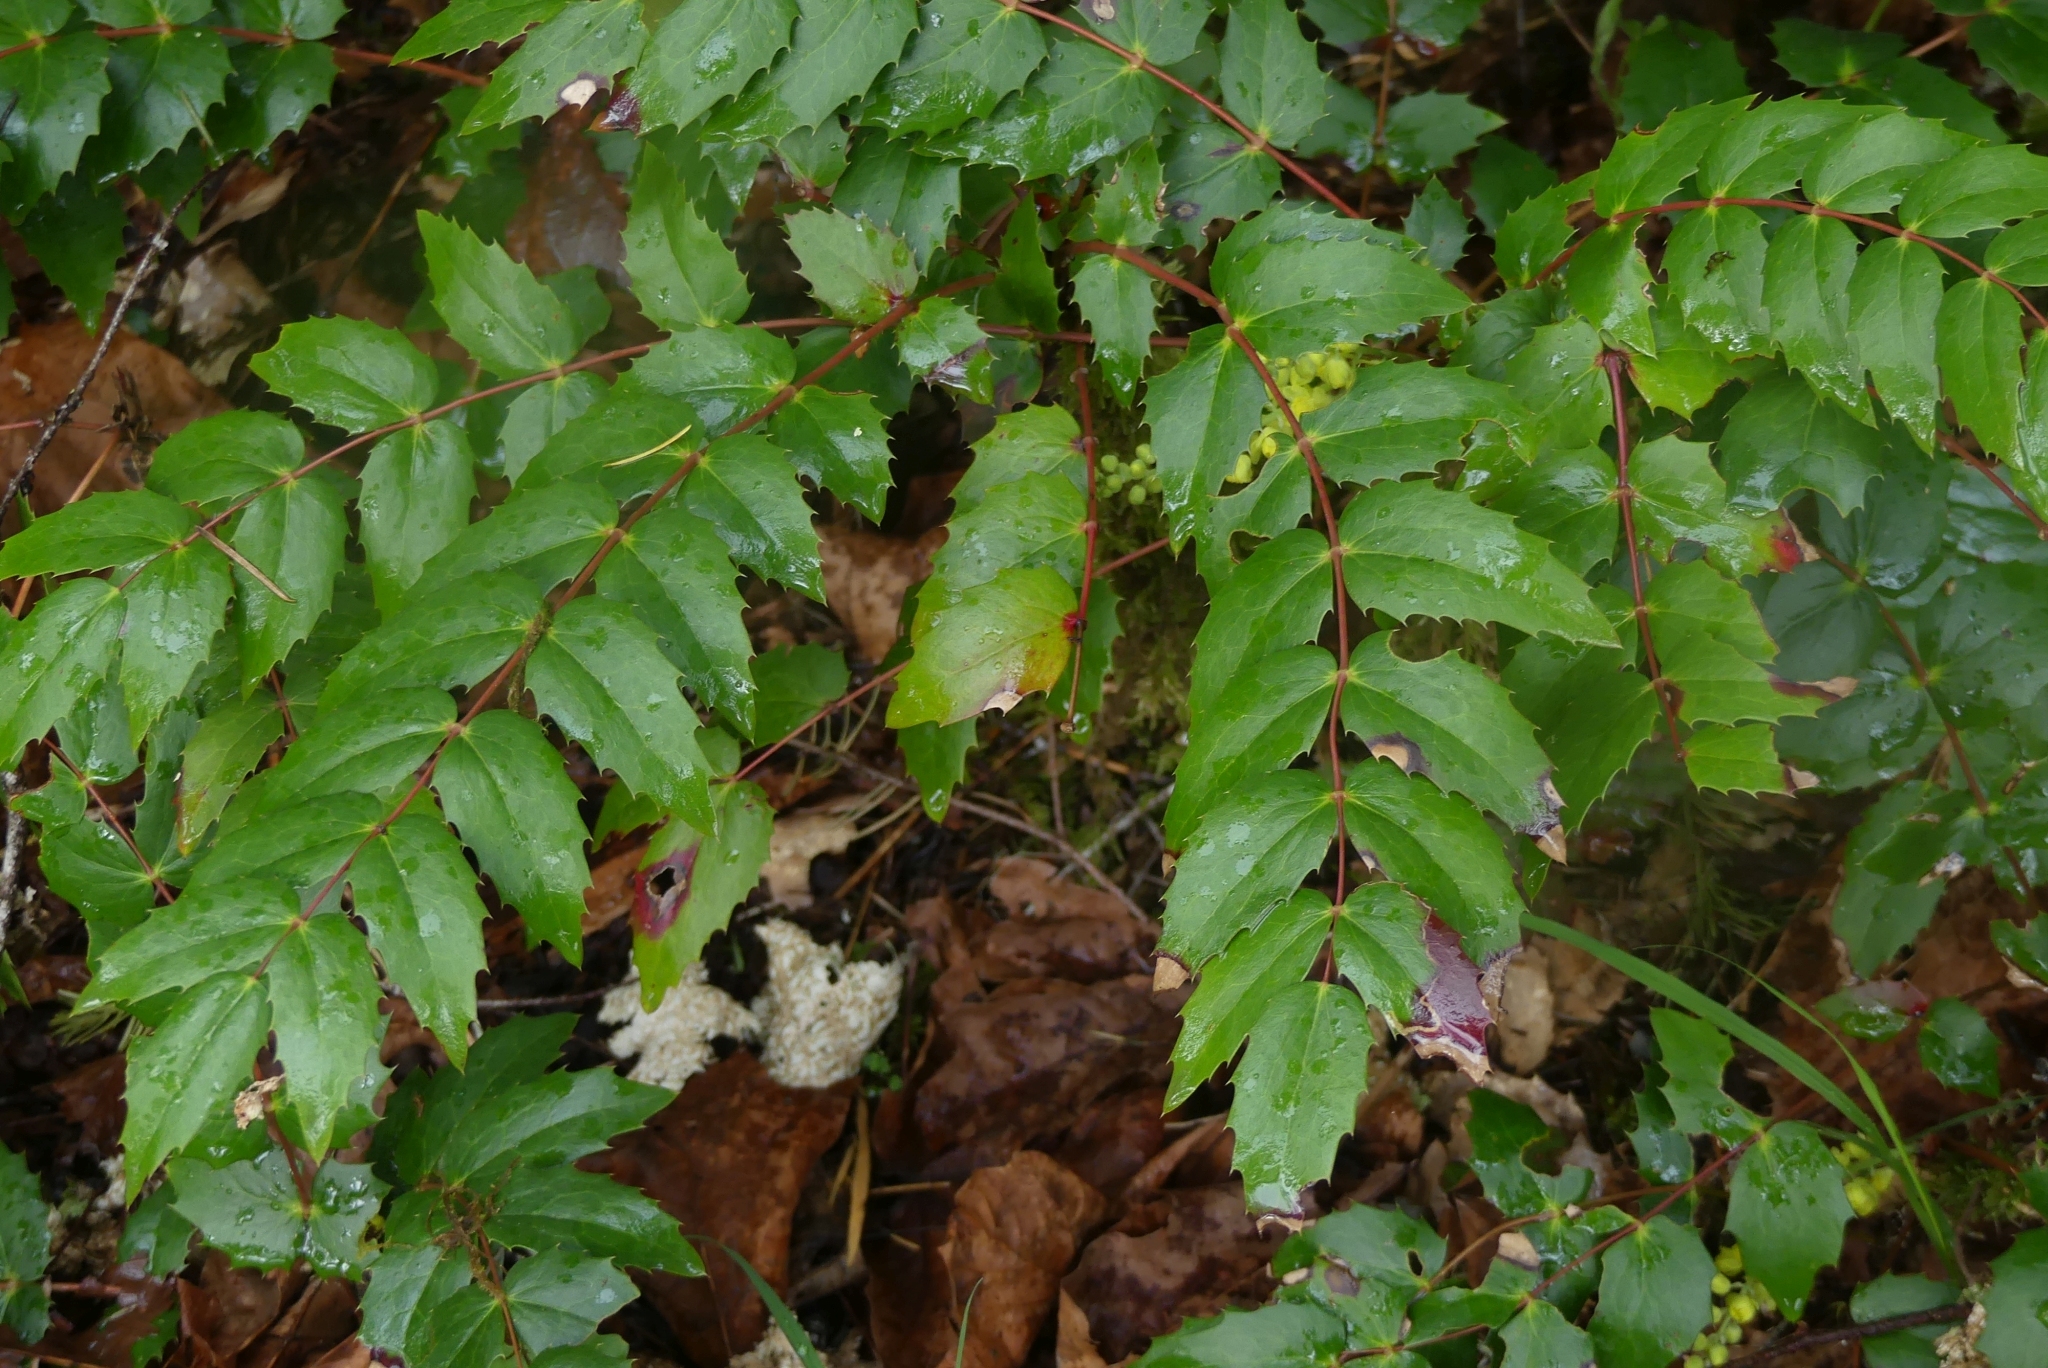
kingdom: Plantae
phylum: Tracheophyta
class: Magnoliopsida
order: Ranunculales
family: Berberidaceae
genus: Mahonia
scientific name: Mahonia nervosa
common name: Cascade oregon-grape
